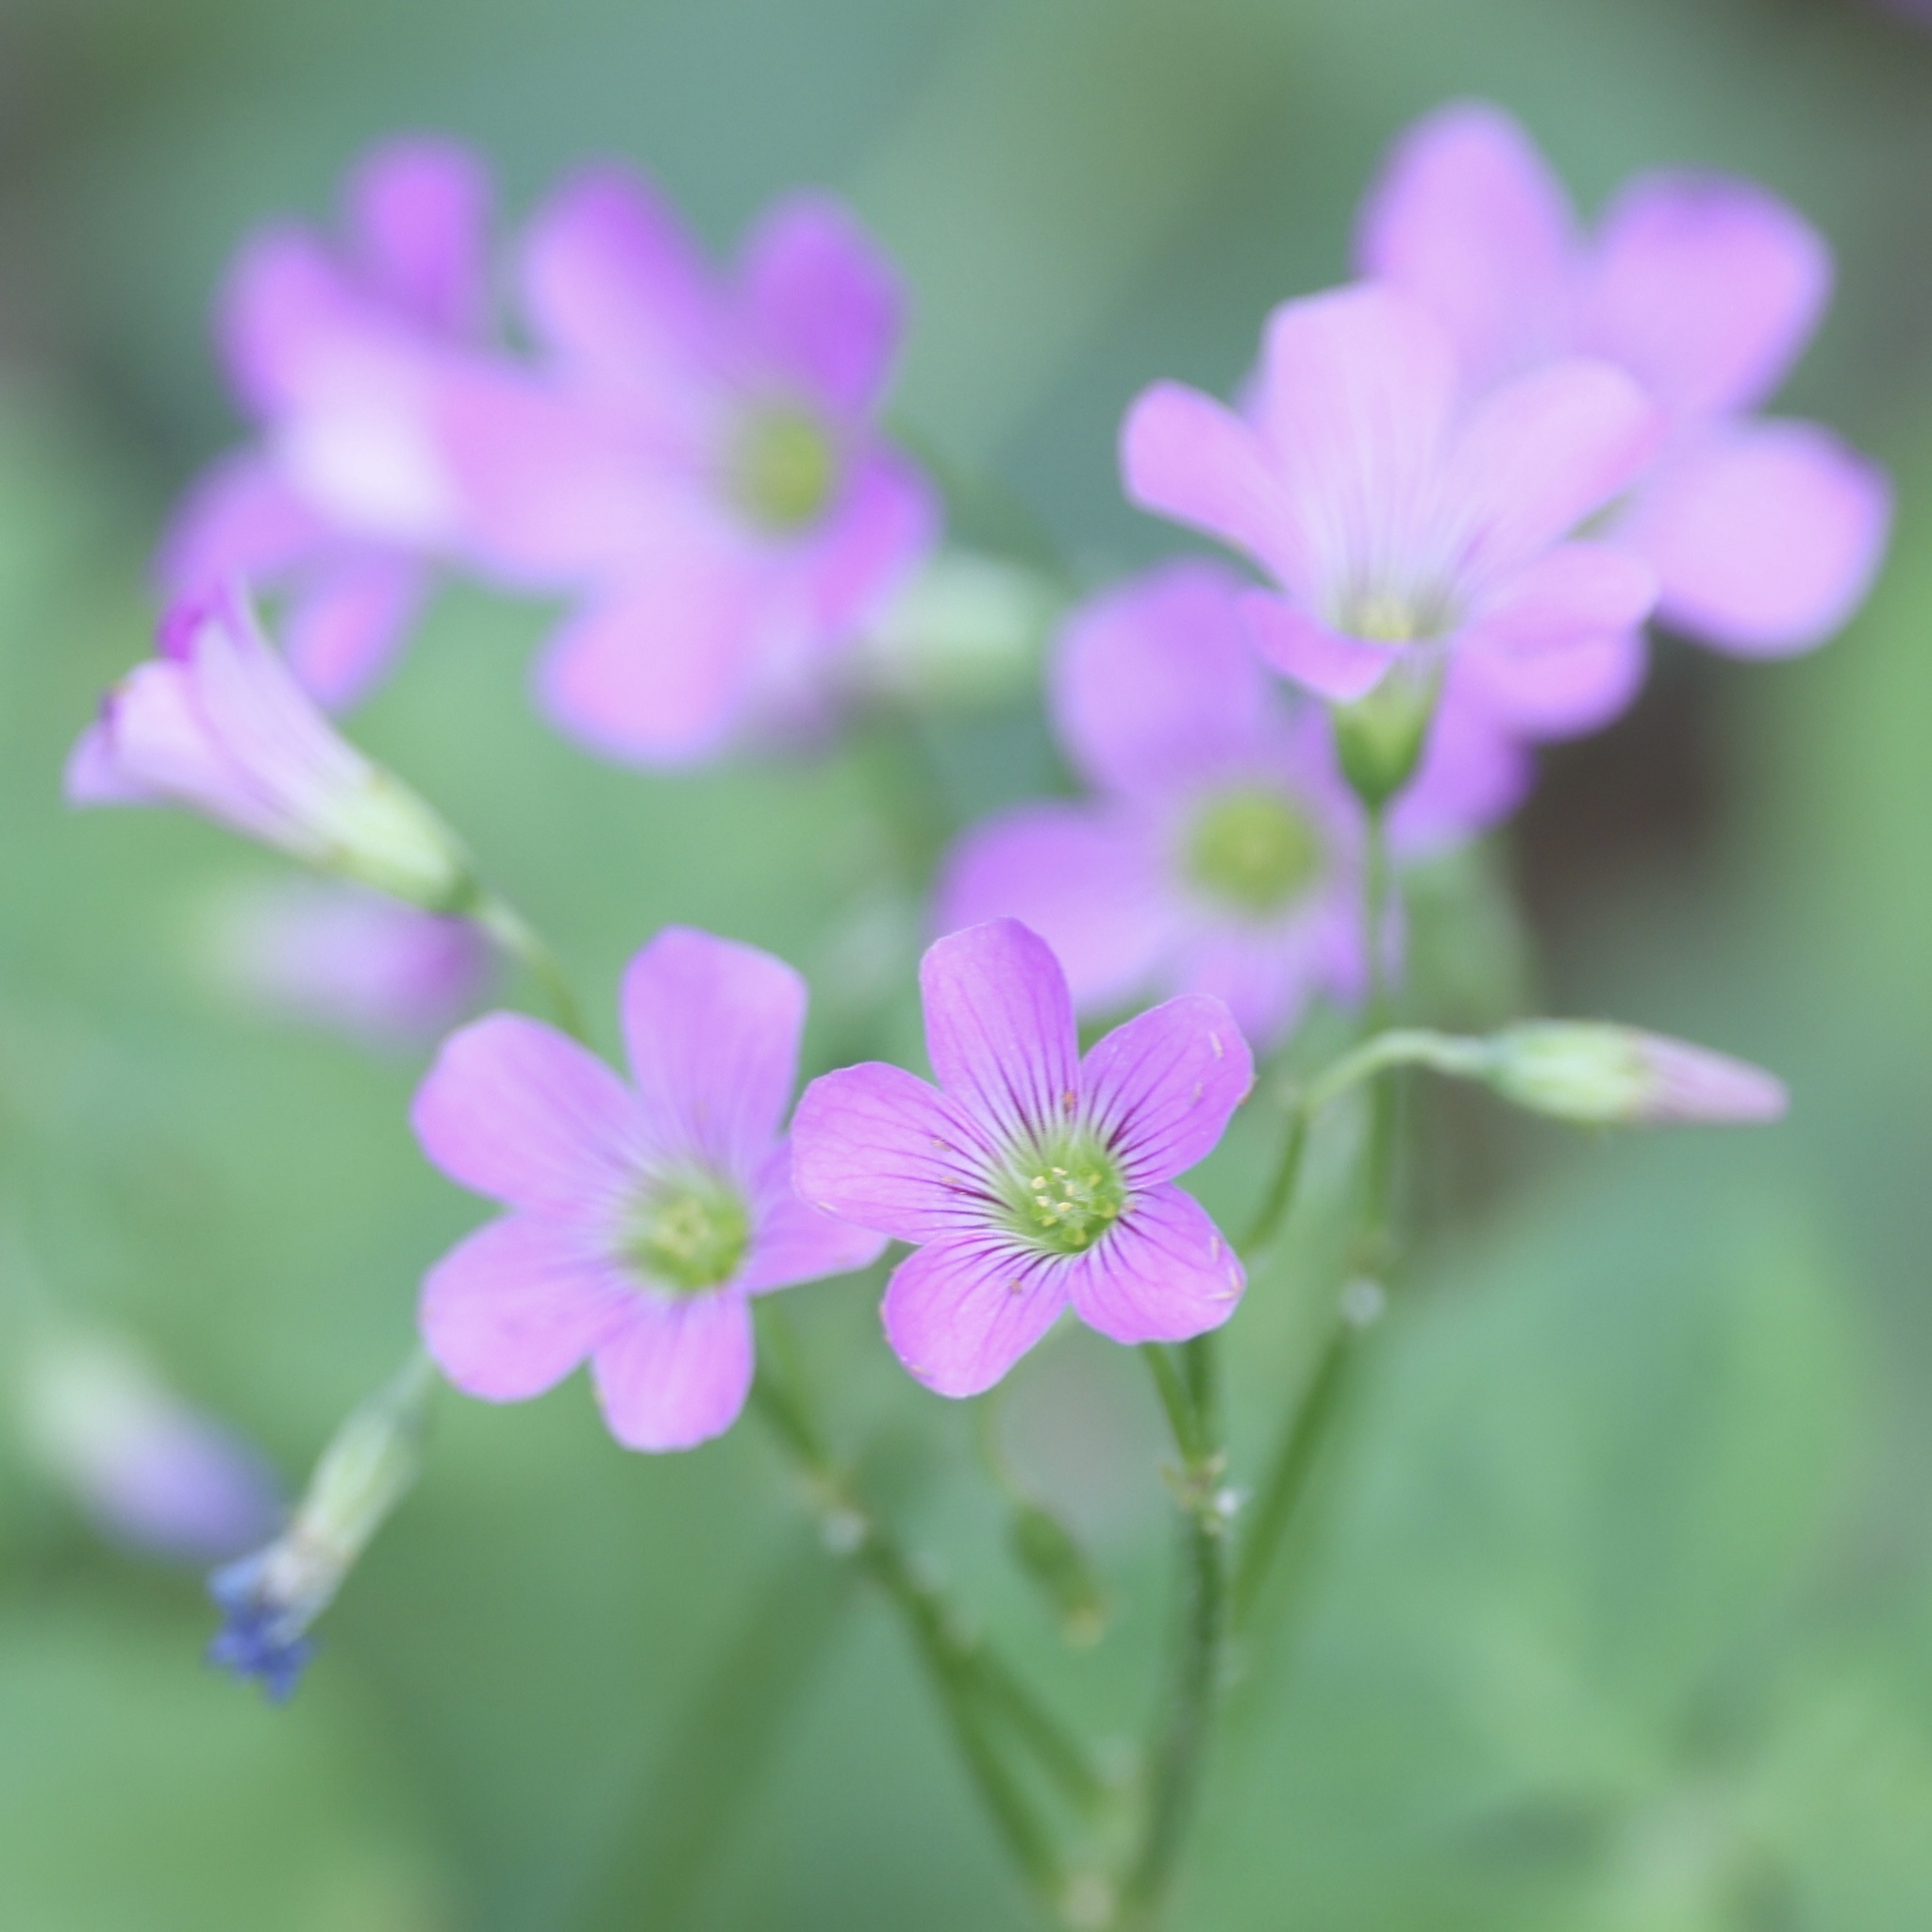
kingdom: Plantae
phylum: Tracheophyta
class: Magnoliopsida
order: Oxalidales
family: Oxalidaceae
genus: Oxalis
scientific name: Oxalis debilis
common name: Large-flowered pink-sorrel
